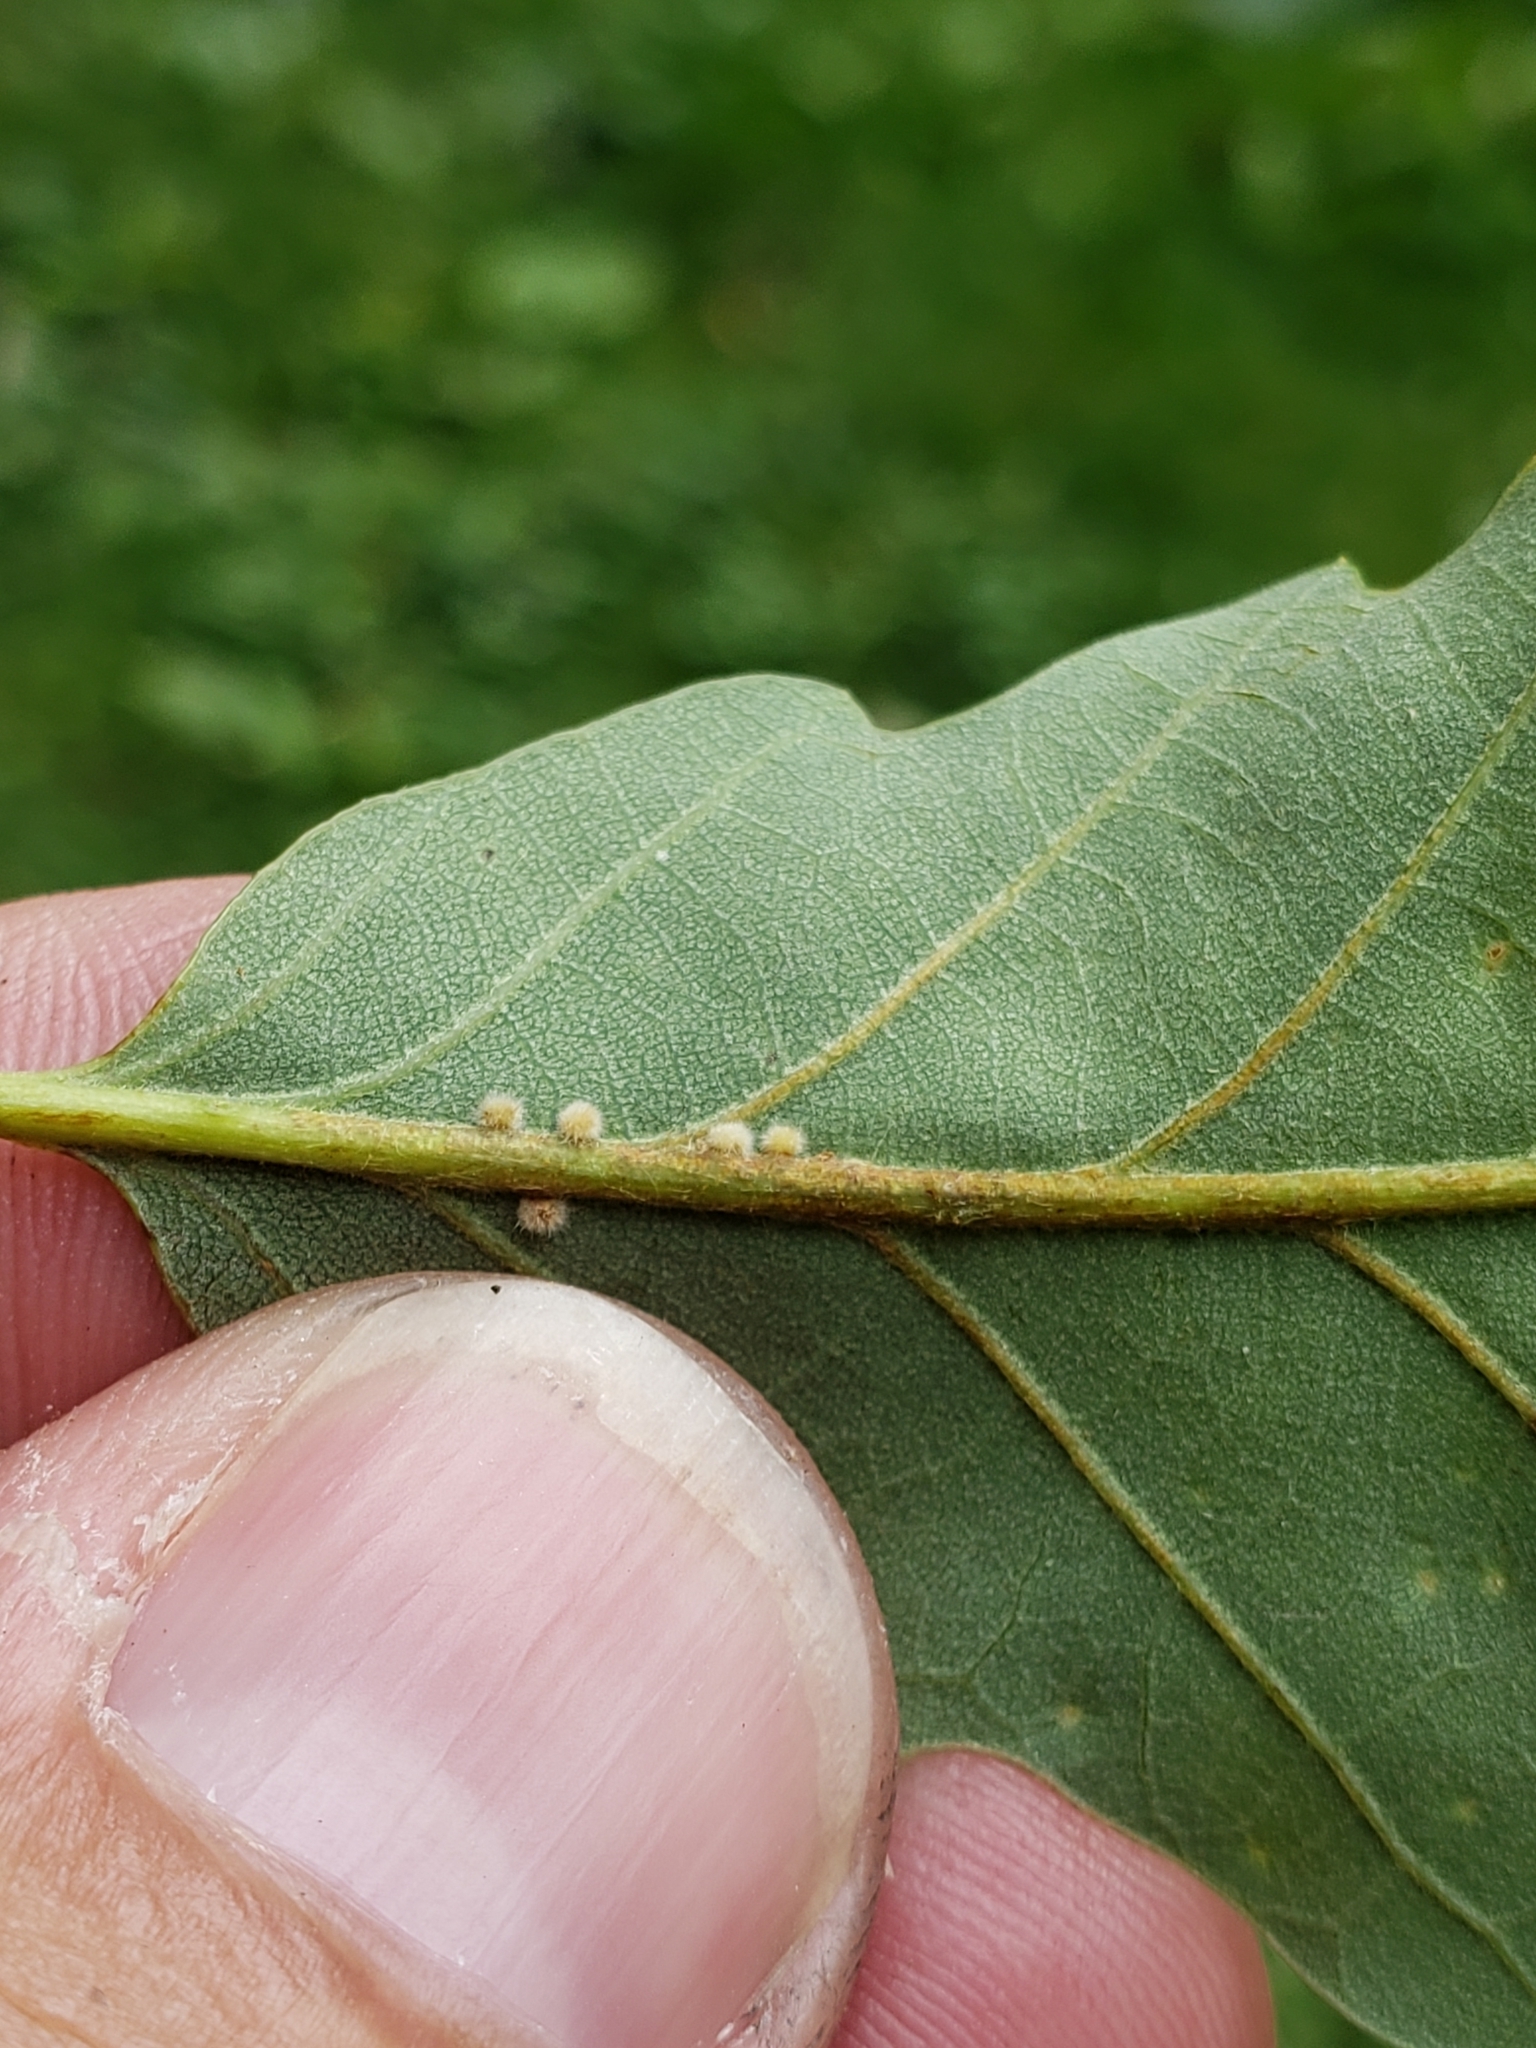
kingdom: Animalia
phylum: Arthropoda
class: Insecta
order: Hymenoptera
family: Cynipidae
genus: Andricus
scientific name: Andricus
